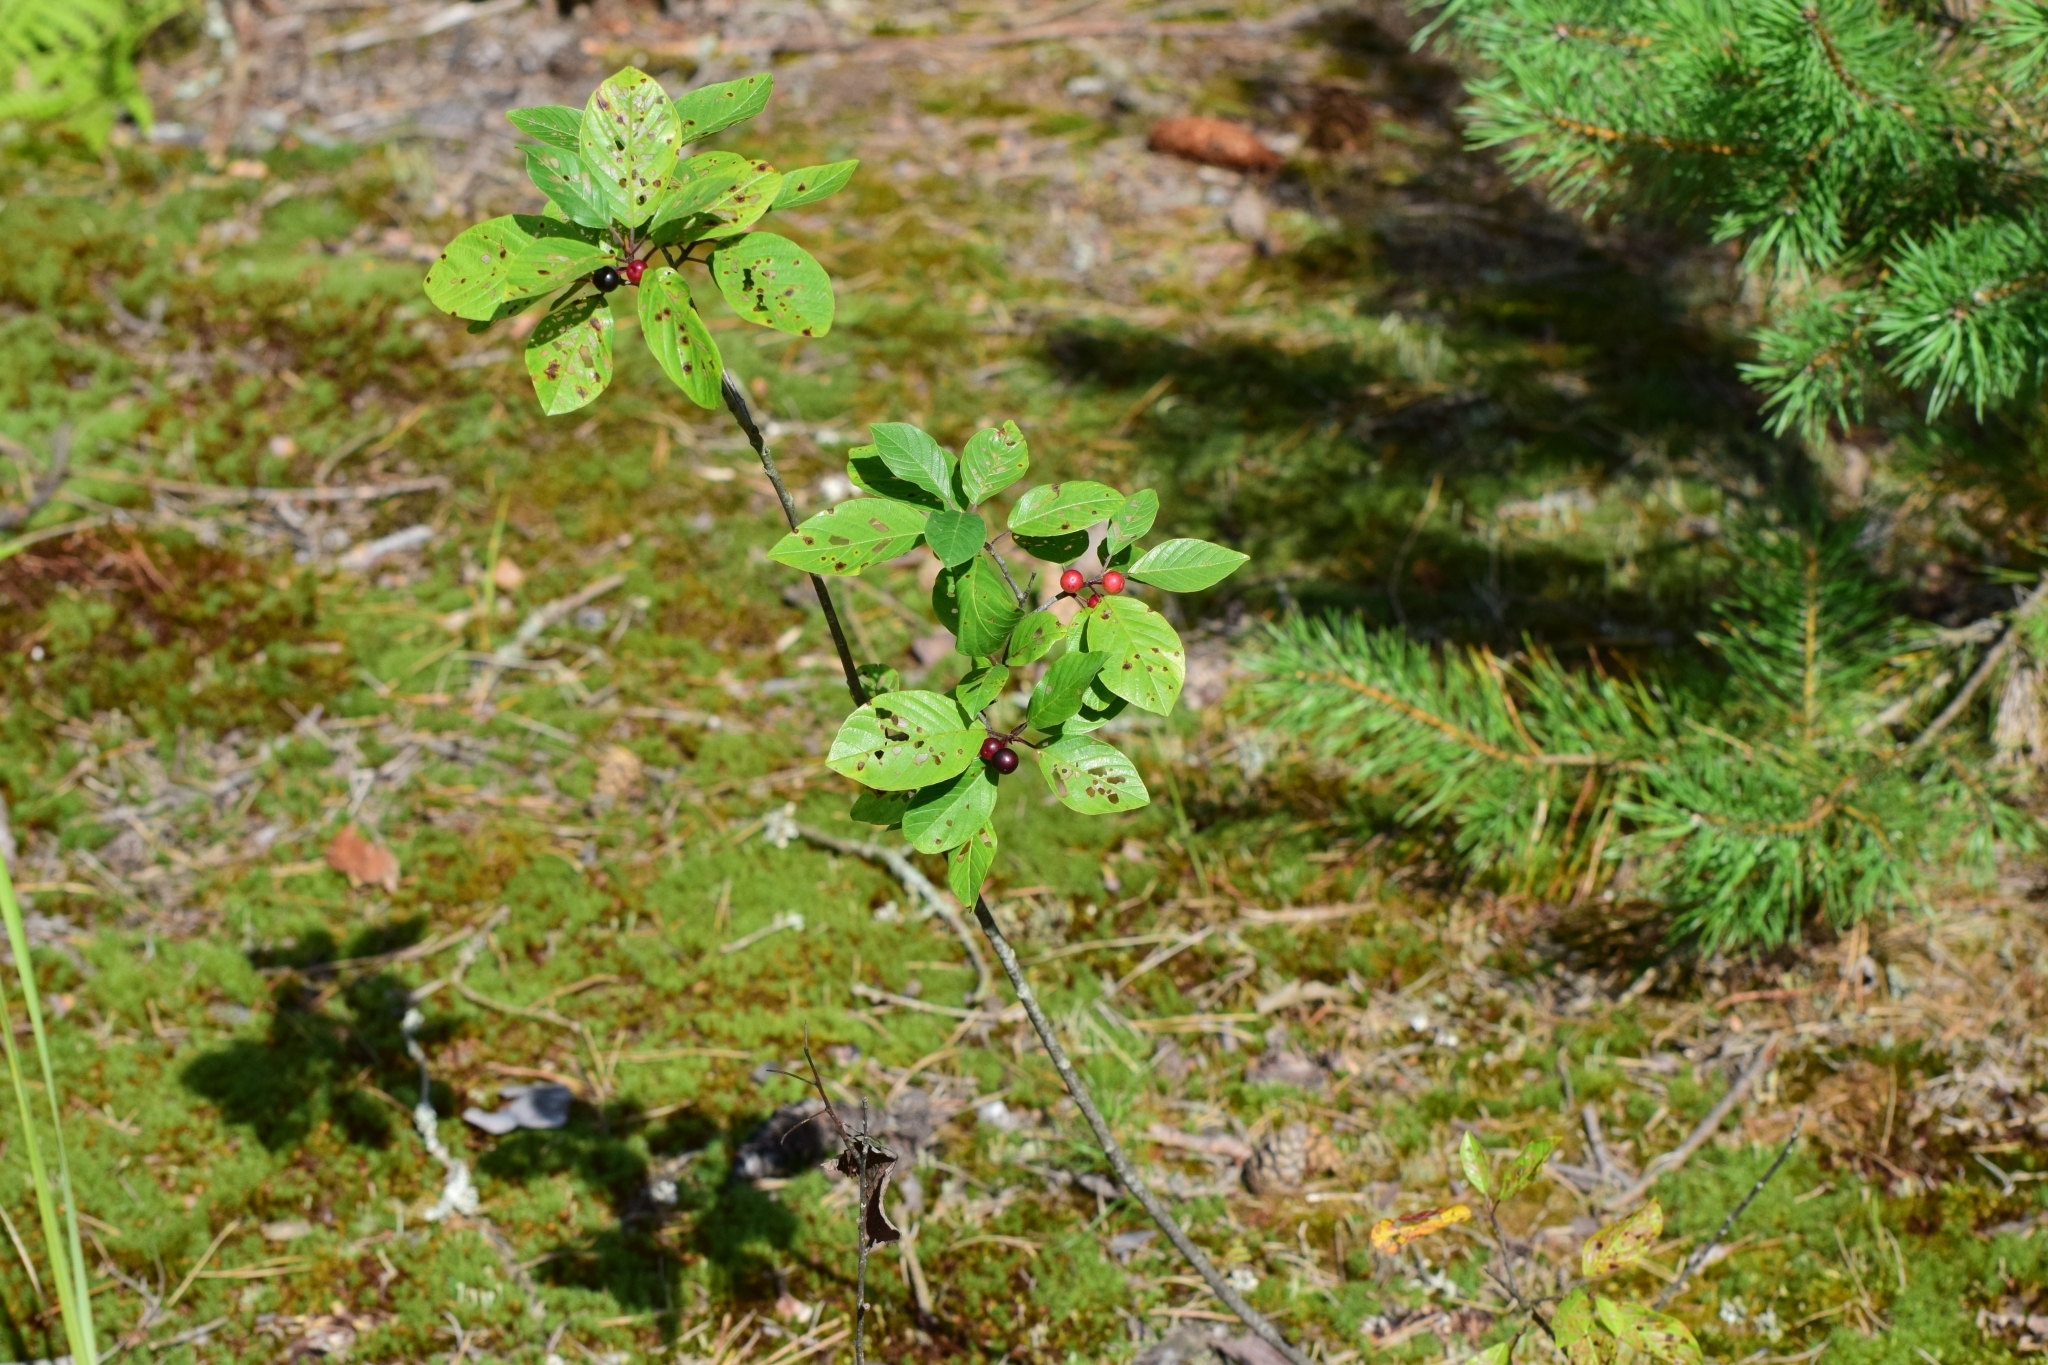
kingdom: Plantae
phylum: Tracheophyta
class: Magnoliopsida
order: Rosales
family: Rhamnaceae
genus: Frangula
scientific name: Frangula alnus
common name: Alder buckthorn
